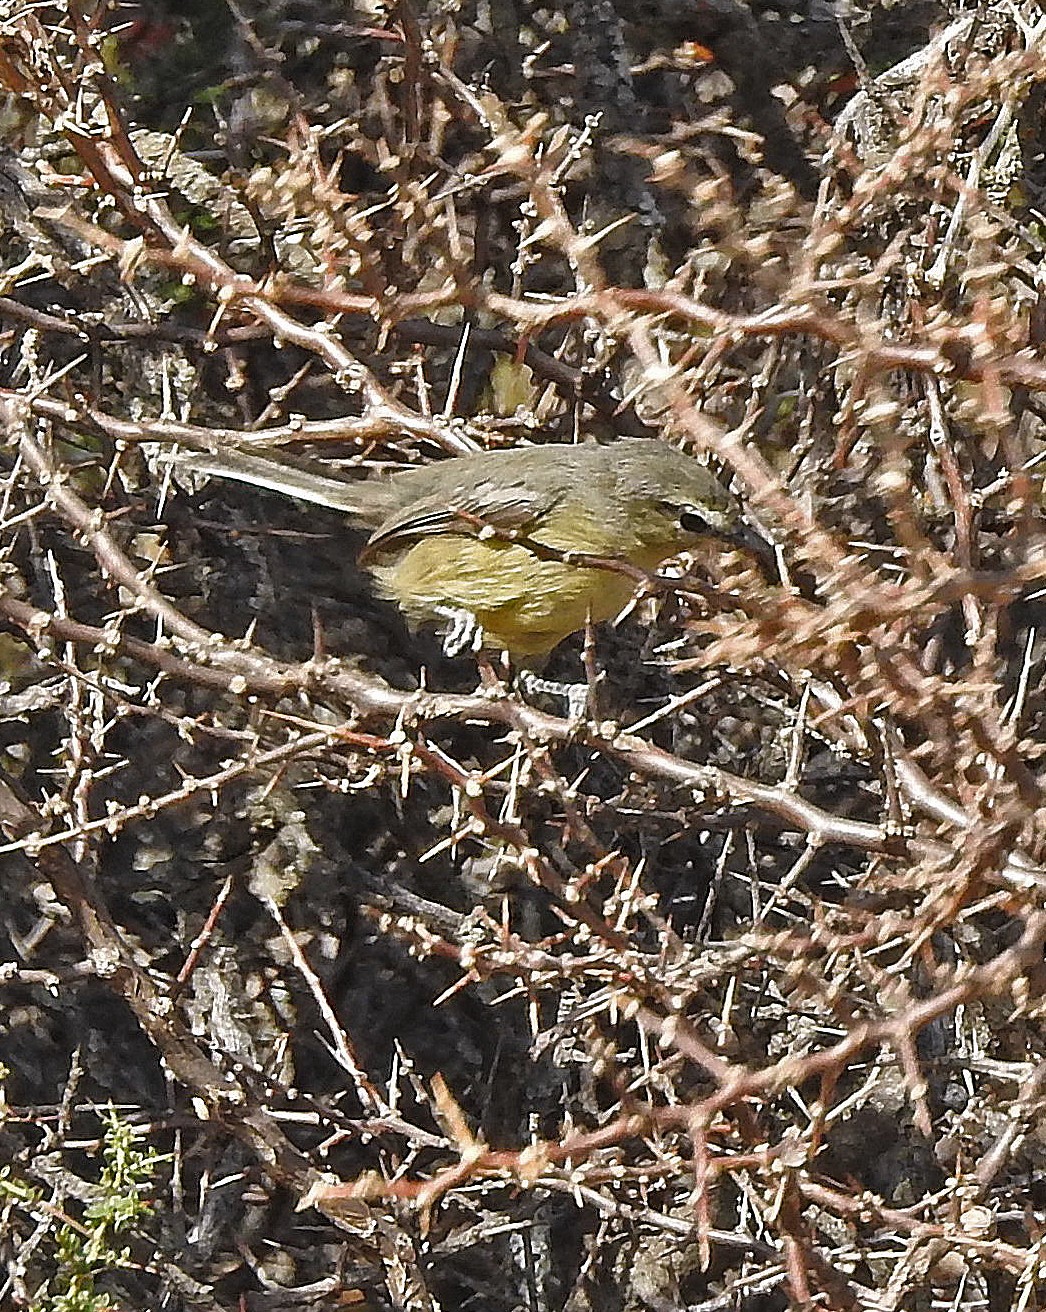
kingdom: Animalia
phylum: Chordata
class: Aves
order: Passeriformes
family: Tyrannidae
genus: Stigmatura
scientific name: Stigmatura budytoides
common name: Greater wagtail-tyrant
